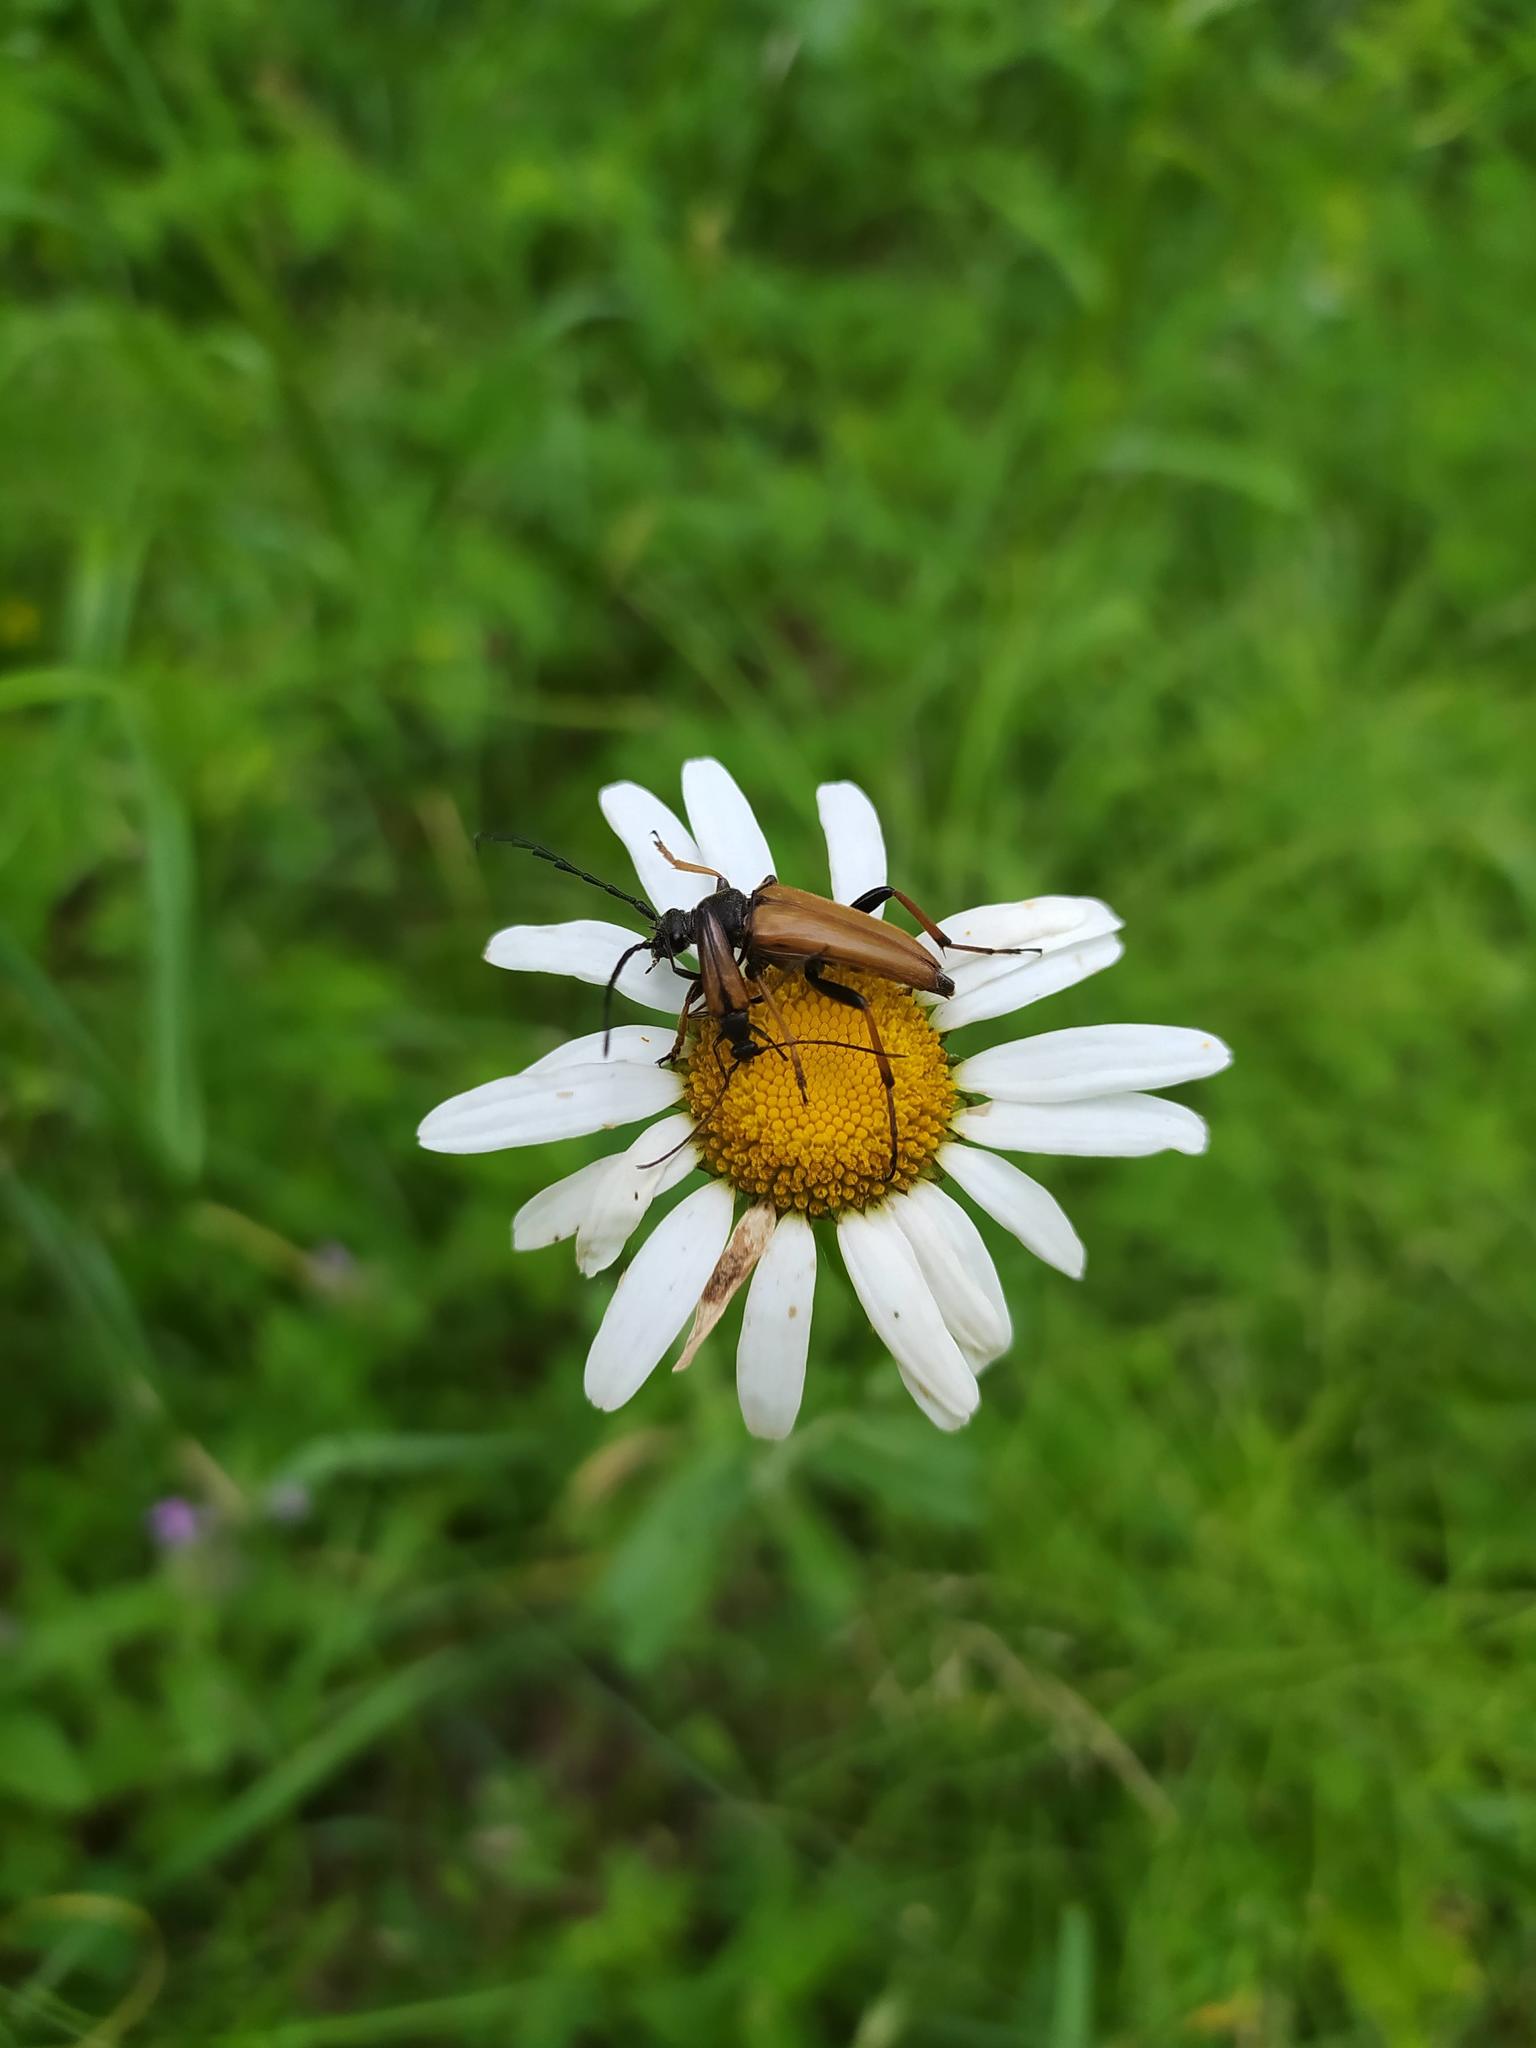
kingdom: Animalia
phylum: Arthropoda
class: Insecta
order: Coleoptera
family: Cerambycidae
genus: Stictoleptura
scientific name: Stictoleptura rubra
